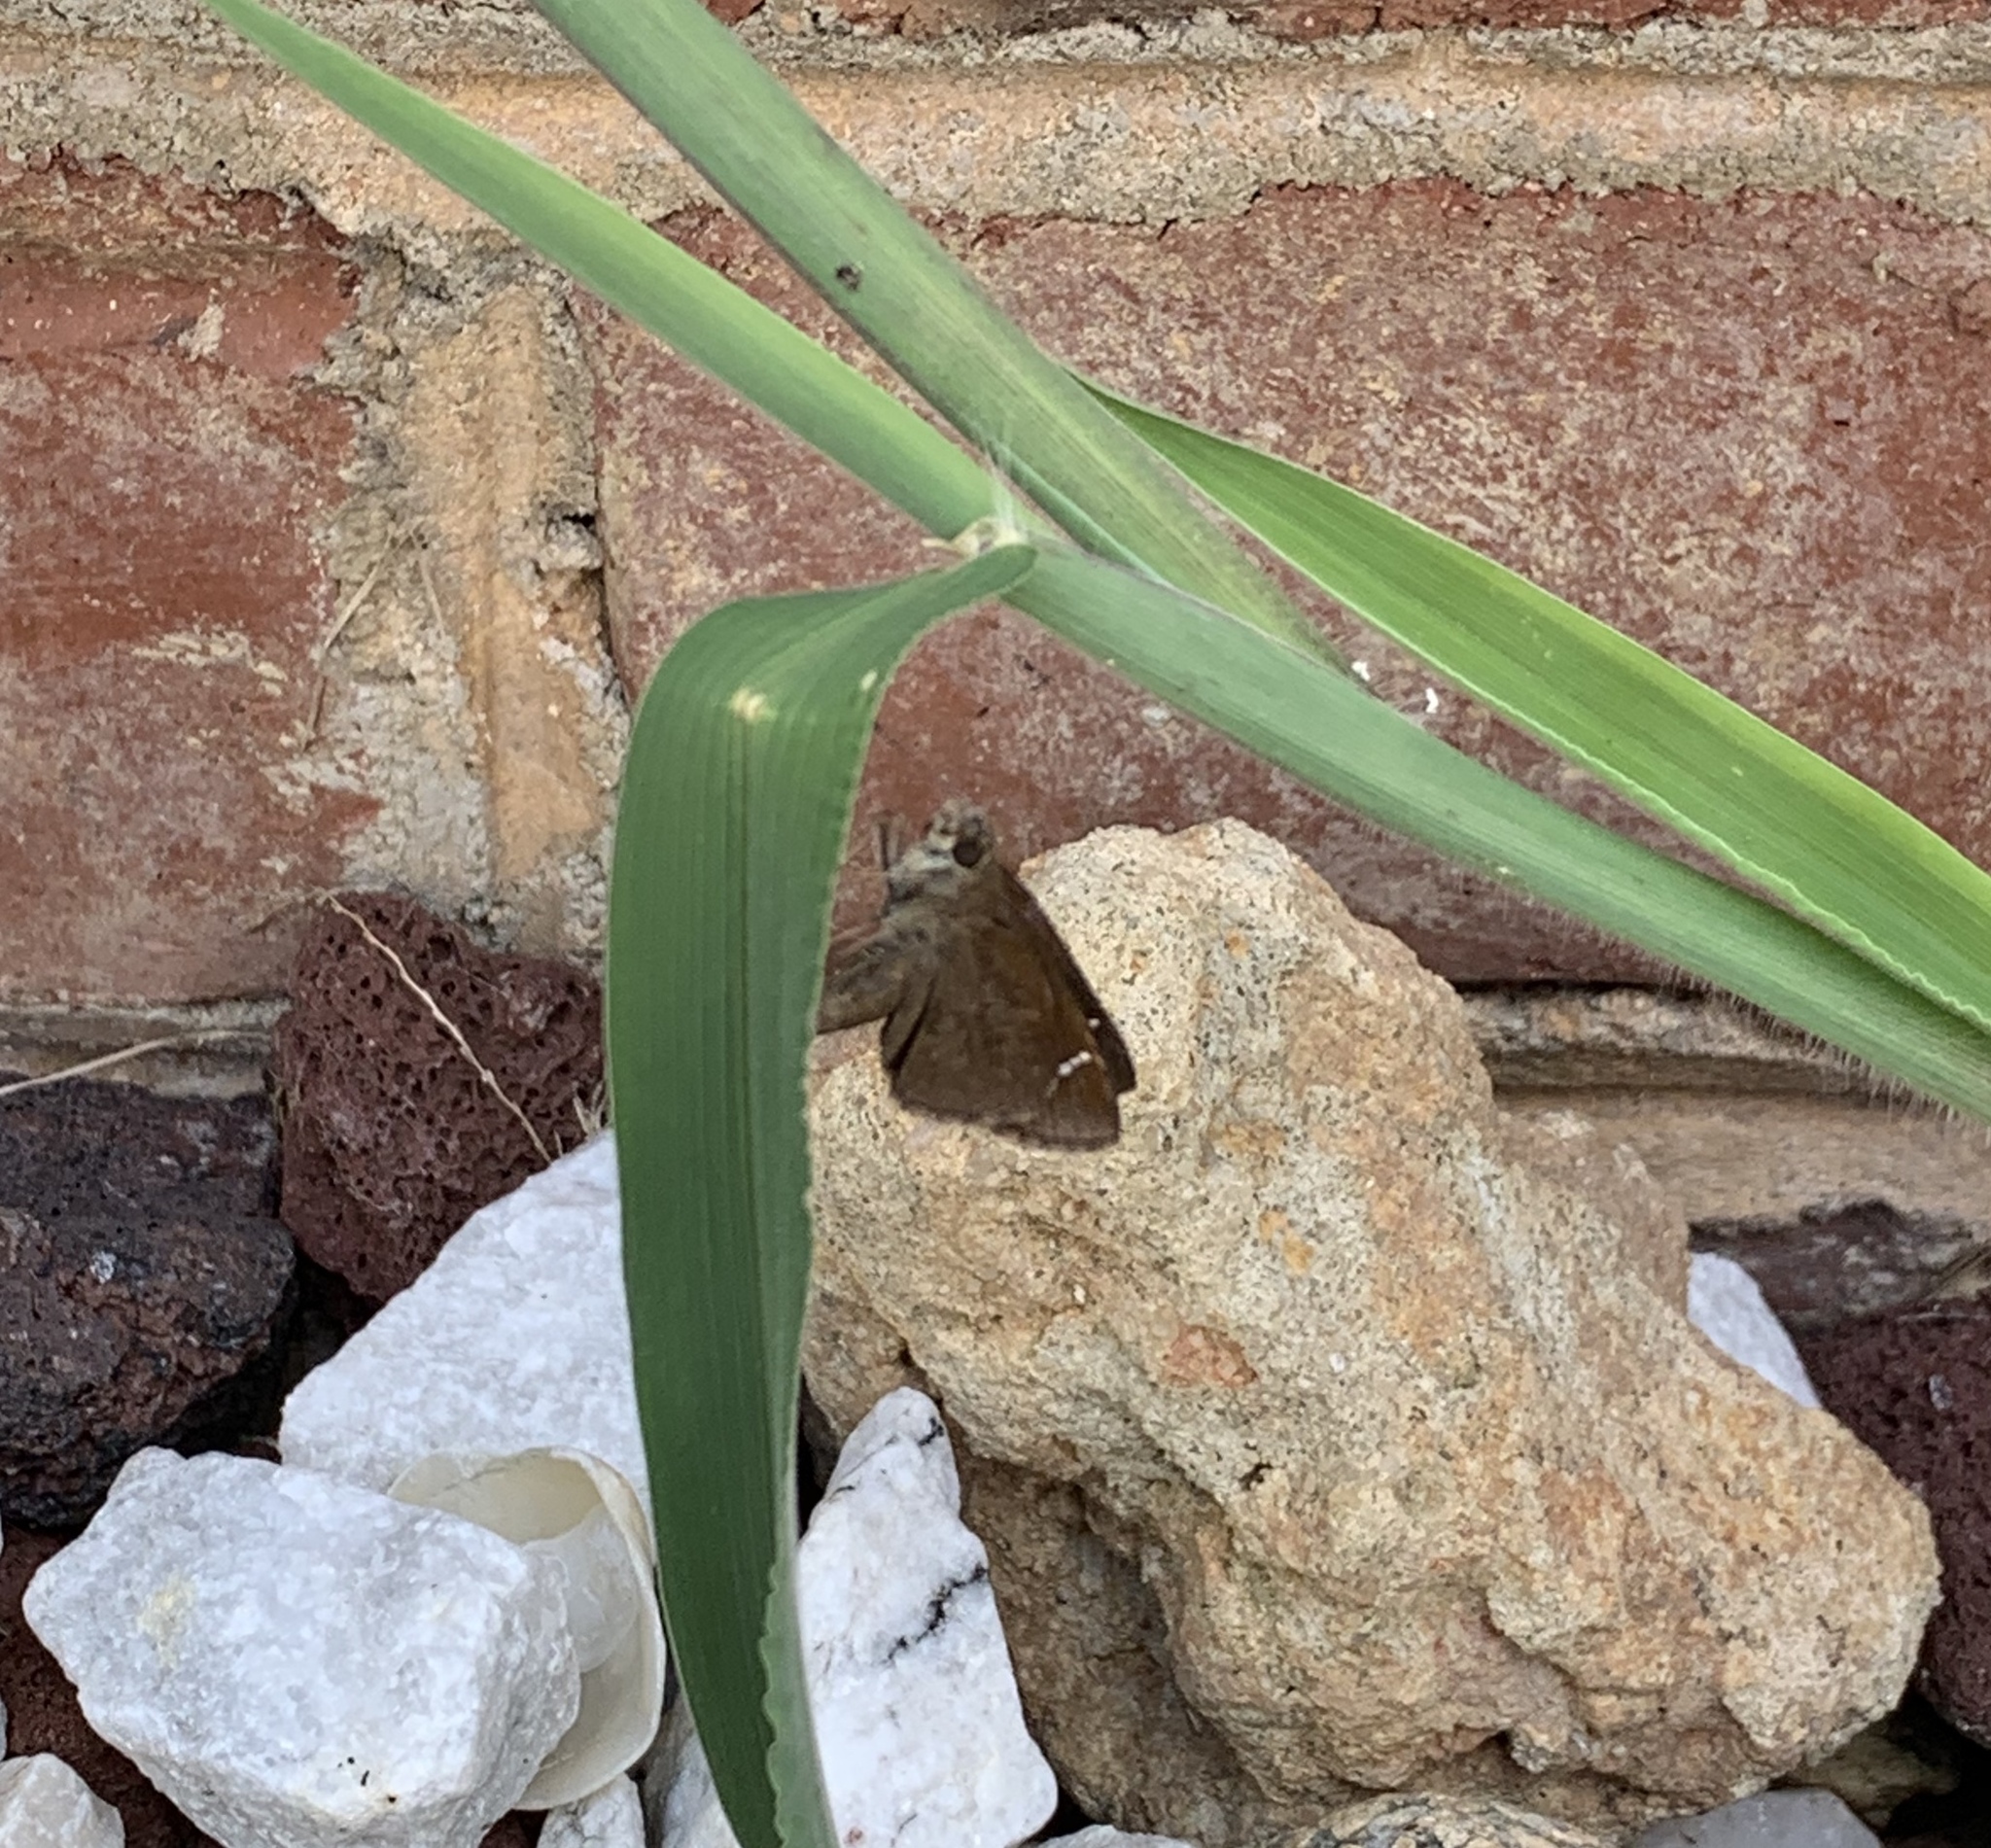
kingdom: Animalia
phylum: Arthropoda
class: Insecta
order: Lepidoptera
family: Hesperiidae
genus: Lerema
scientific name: Lerema accius
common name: Clouded skipper
